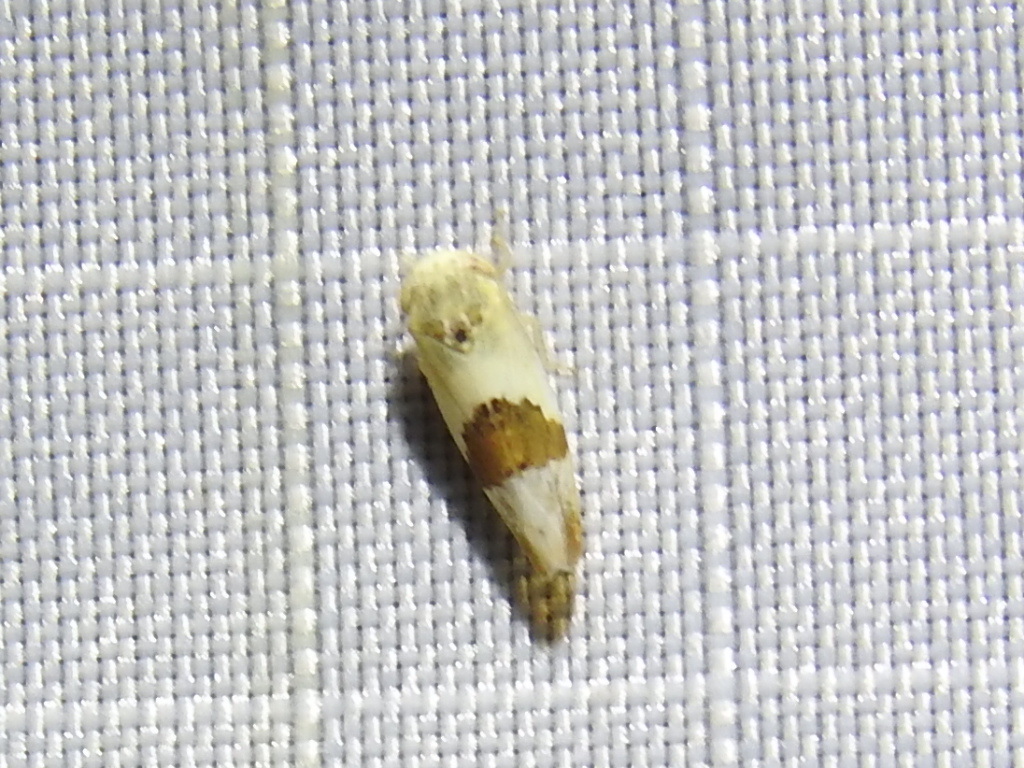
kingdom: Animalia
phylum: Arthropoda
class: Insecta
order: Hemiptera
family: Cicadellidae
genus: Norvellina
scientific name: Norvellina seminuda
